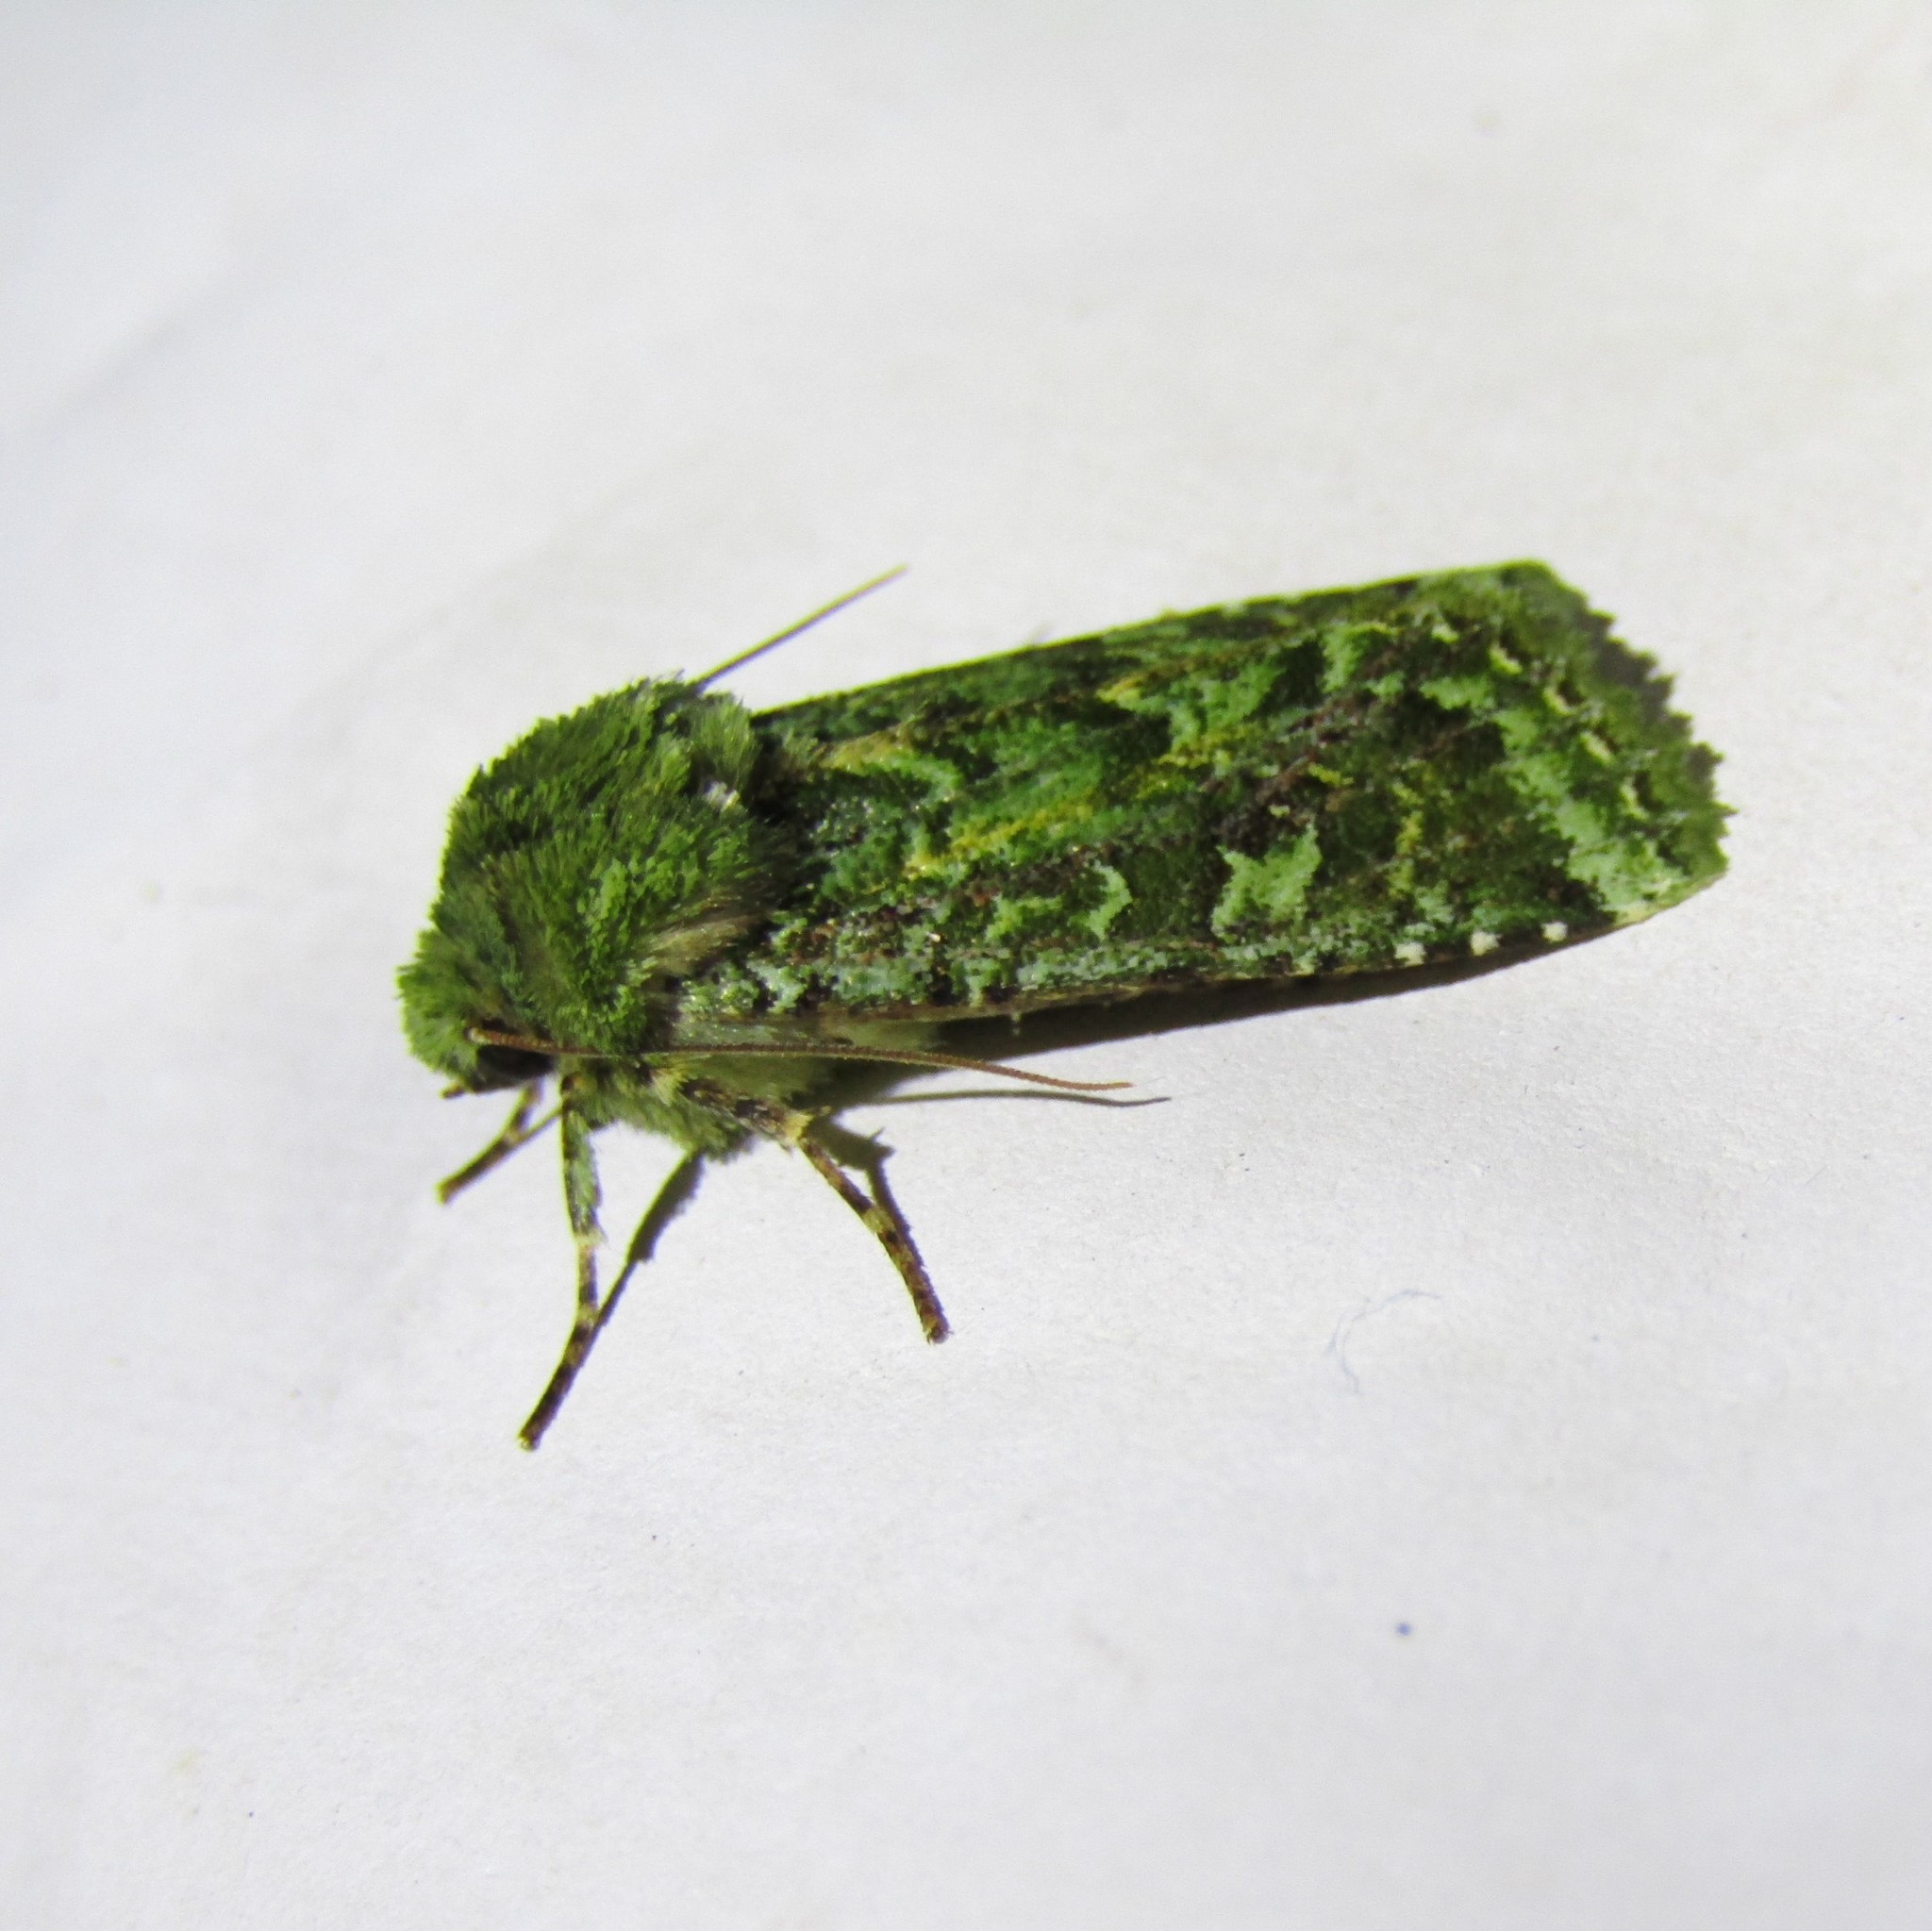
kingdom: Animalia
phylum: Arthropoda
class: Insecta
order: Lepidoptera
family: Noctuidae
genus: Feredayia
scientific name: Feredayia grammosa
